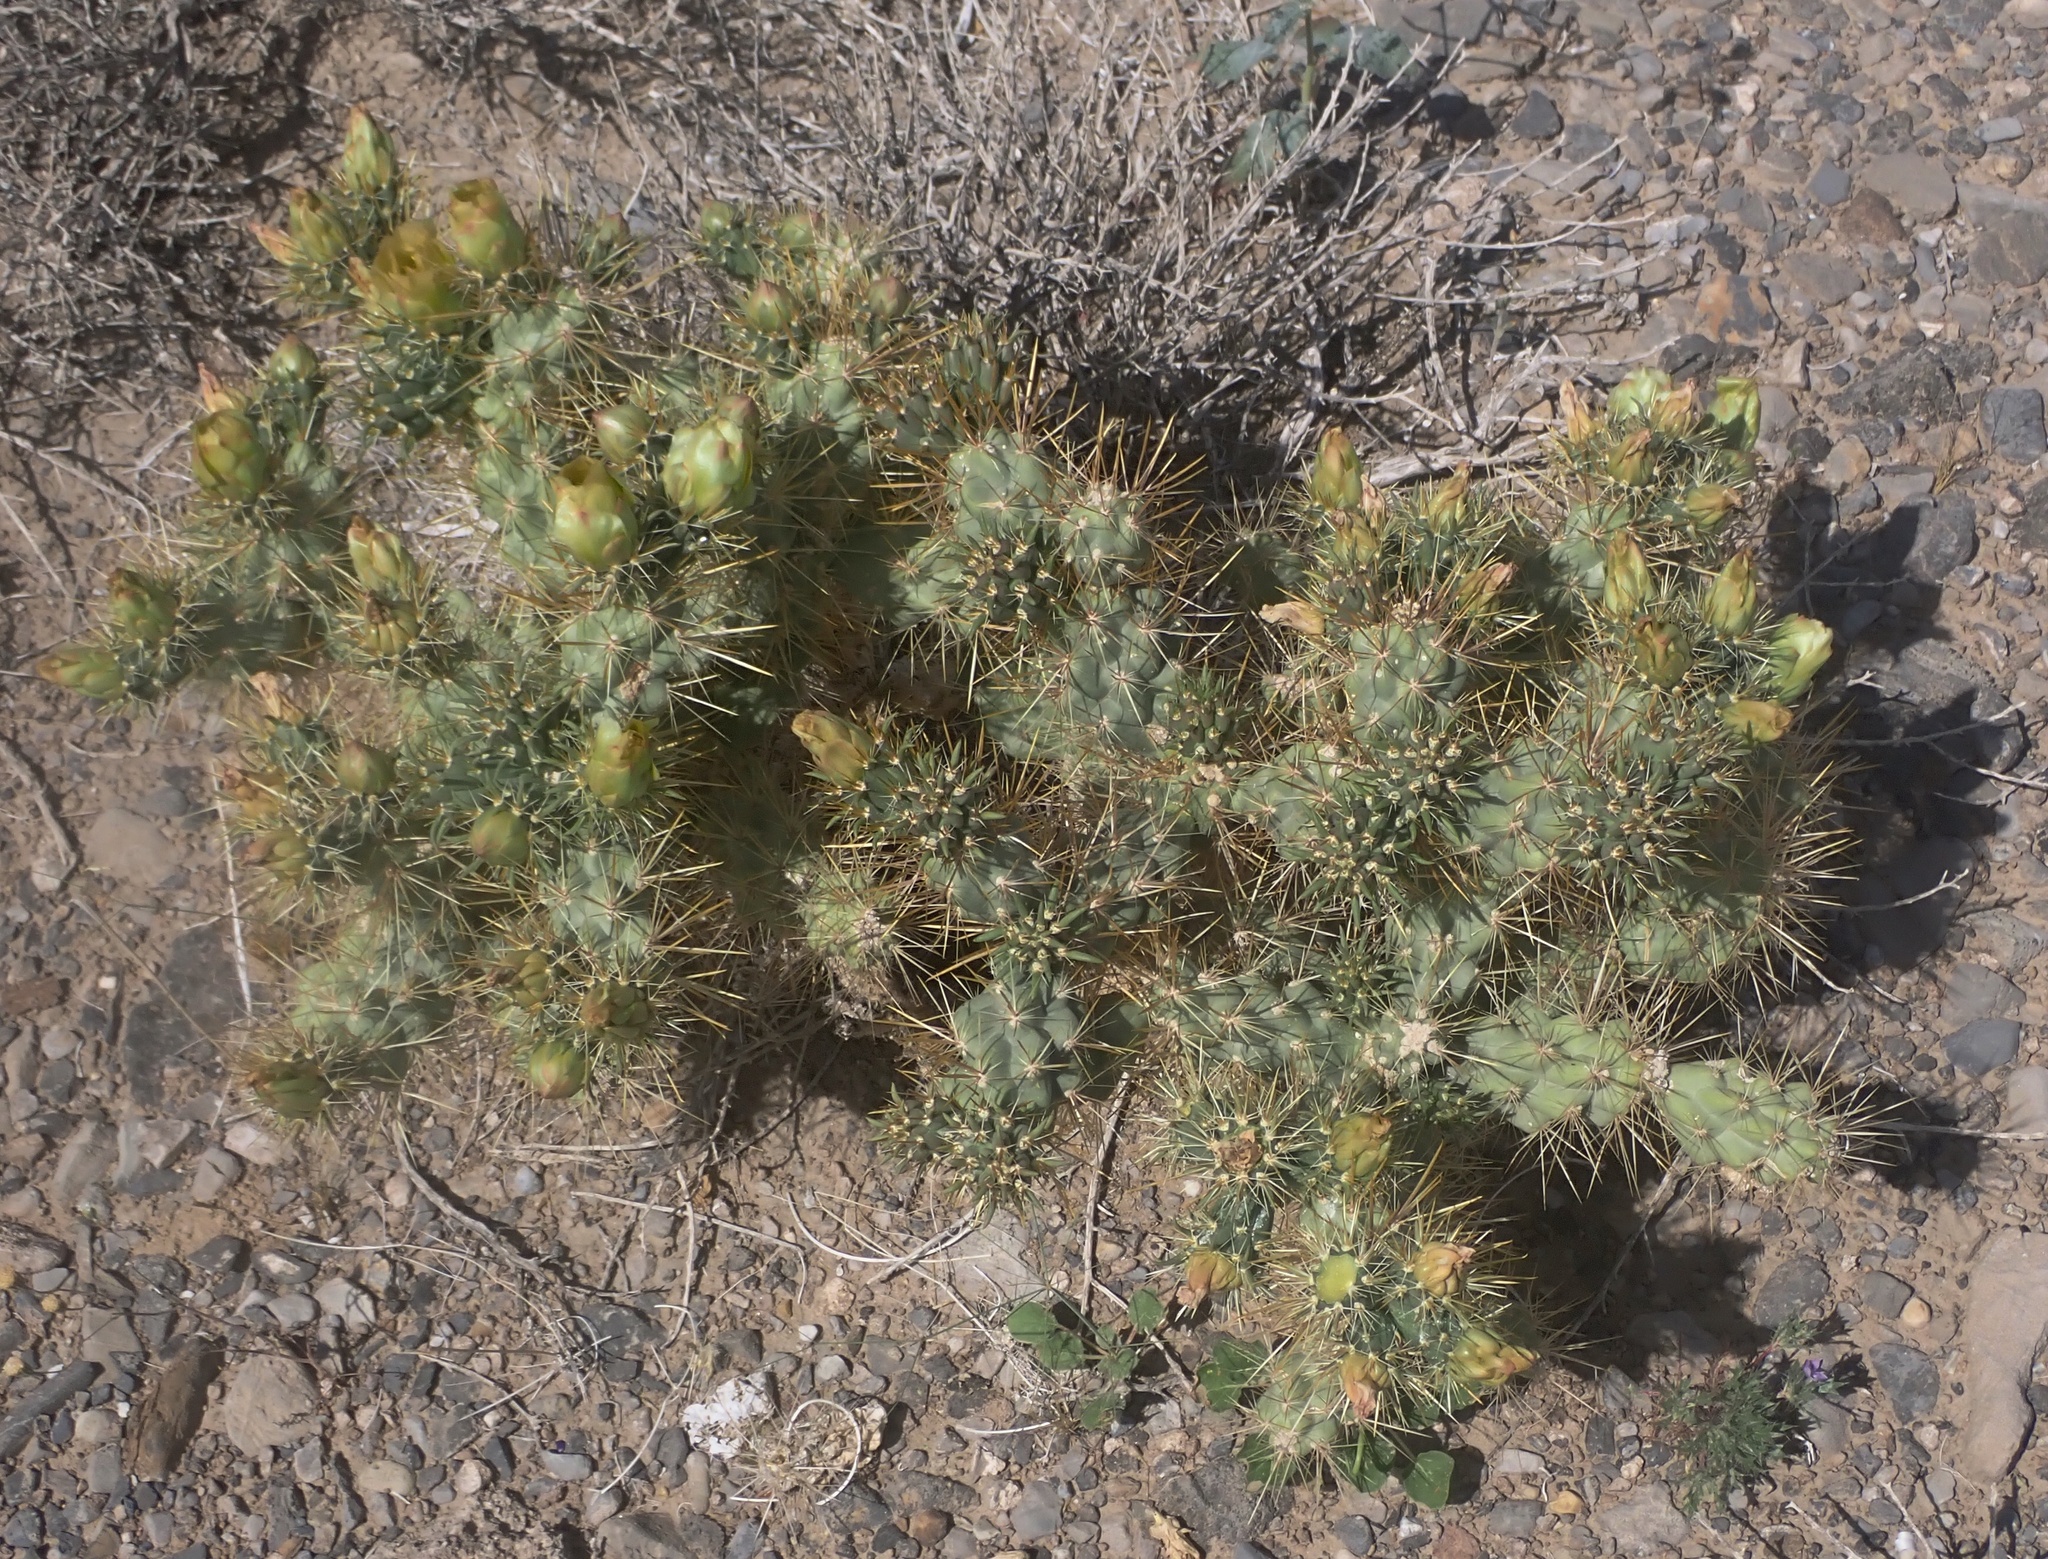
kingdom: Plantae
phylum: Tracheophyta
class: Magnoliopsida
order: Caryophyllales
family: Cactaceae
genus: Cylindropuntia
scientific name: Cylindropuntia echinocarpa
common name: Ground cholla
